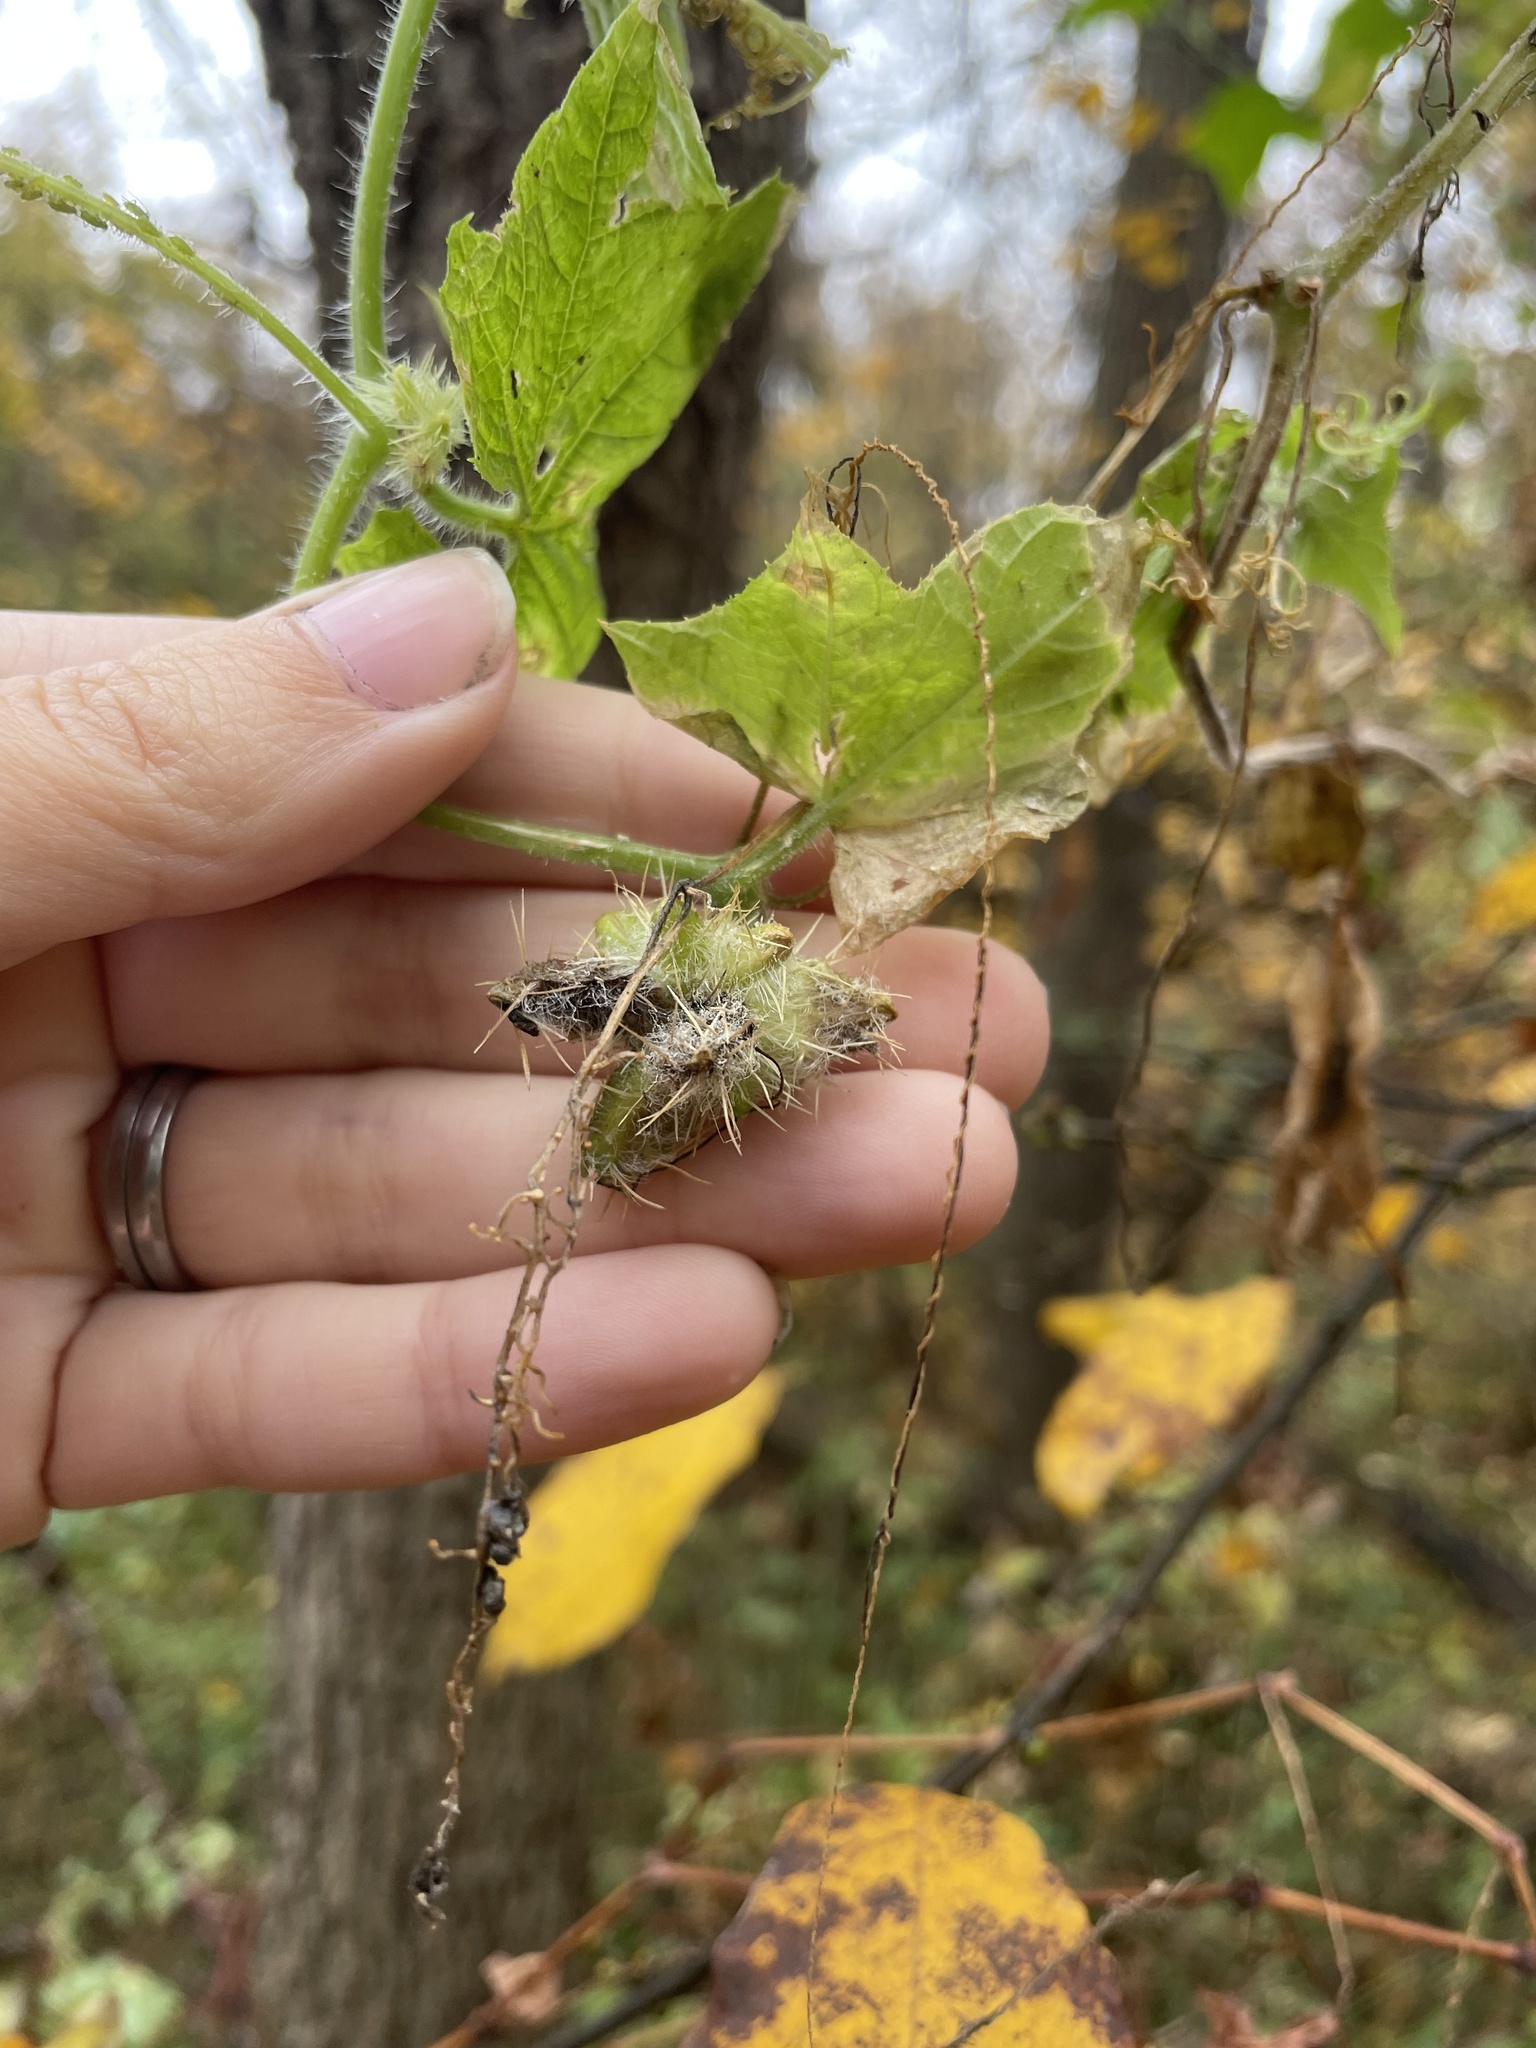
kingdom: Plantae
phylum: Tracheophyta
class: Magnoliopsida
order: Cucurbitales
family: Cucurbitaceae
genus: Sicyos
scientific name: Sicyos angulatus
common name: Angled burr cucumber
